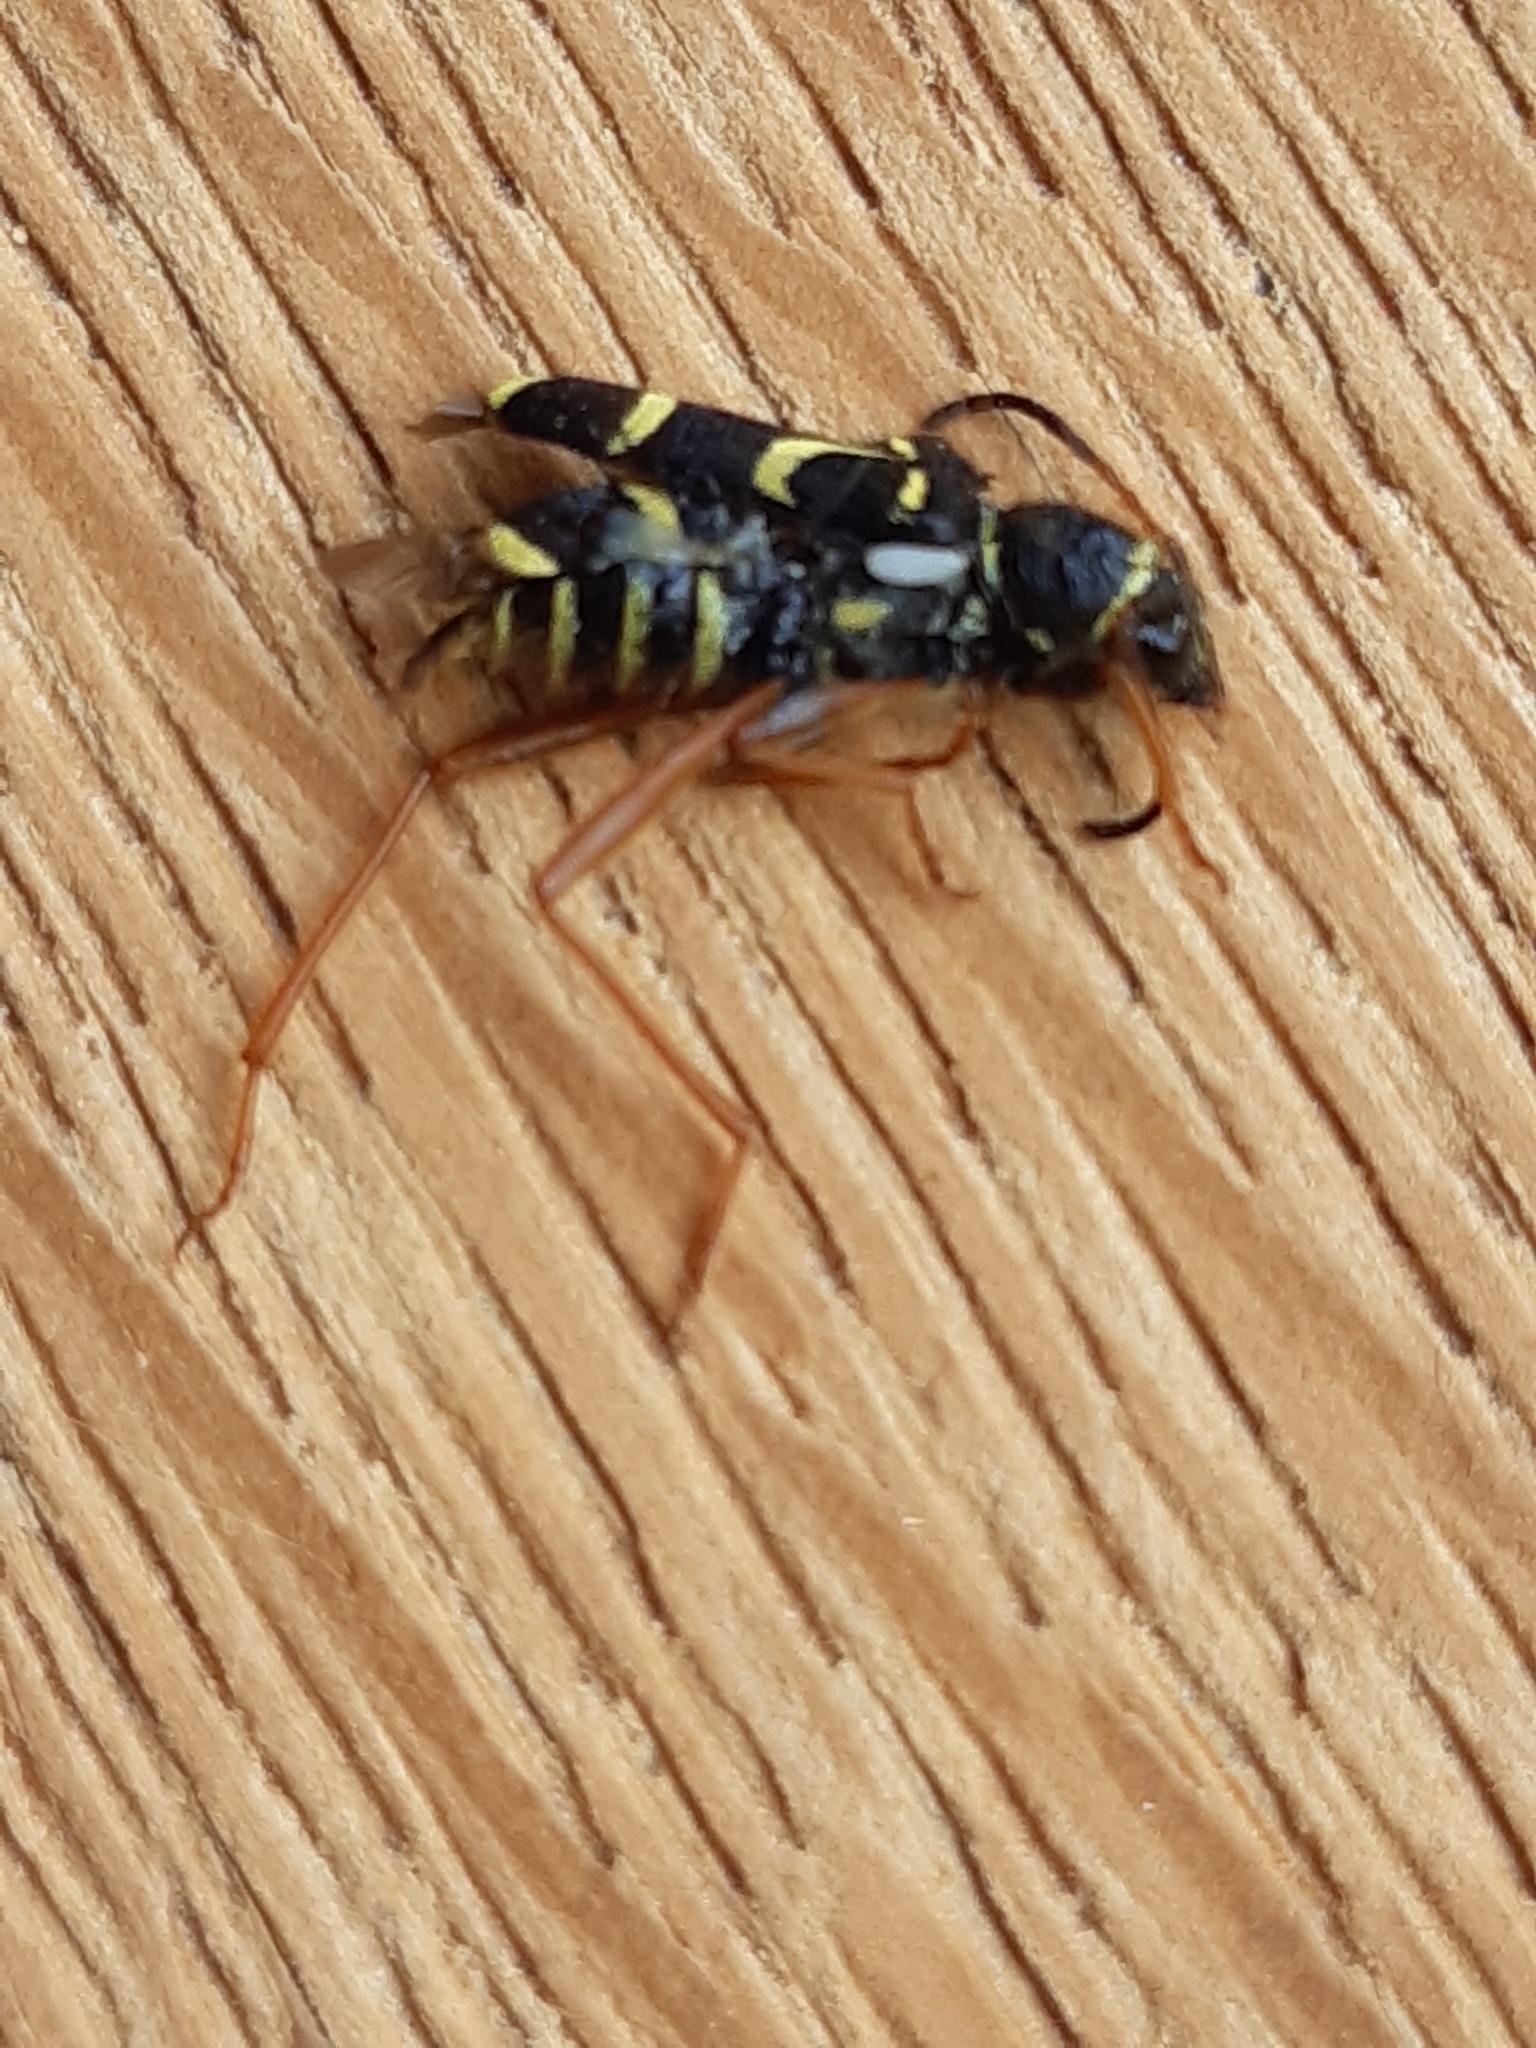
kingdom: Animalia
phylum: Arthropoda
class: Insecta
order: Coleoptera
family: Cerambycidae
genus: Clytus
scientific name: Clytus arietis
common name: Wasp beetle
